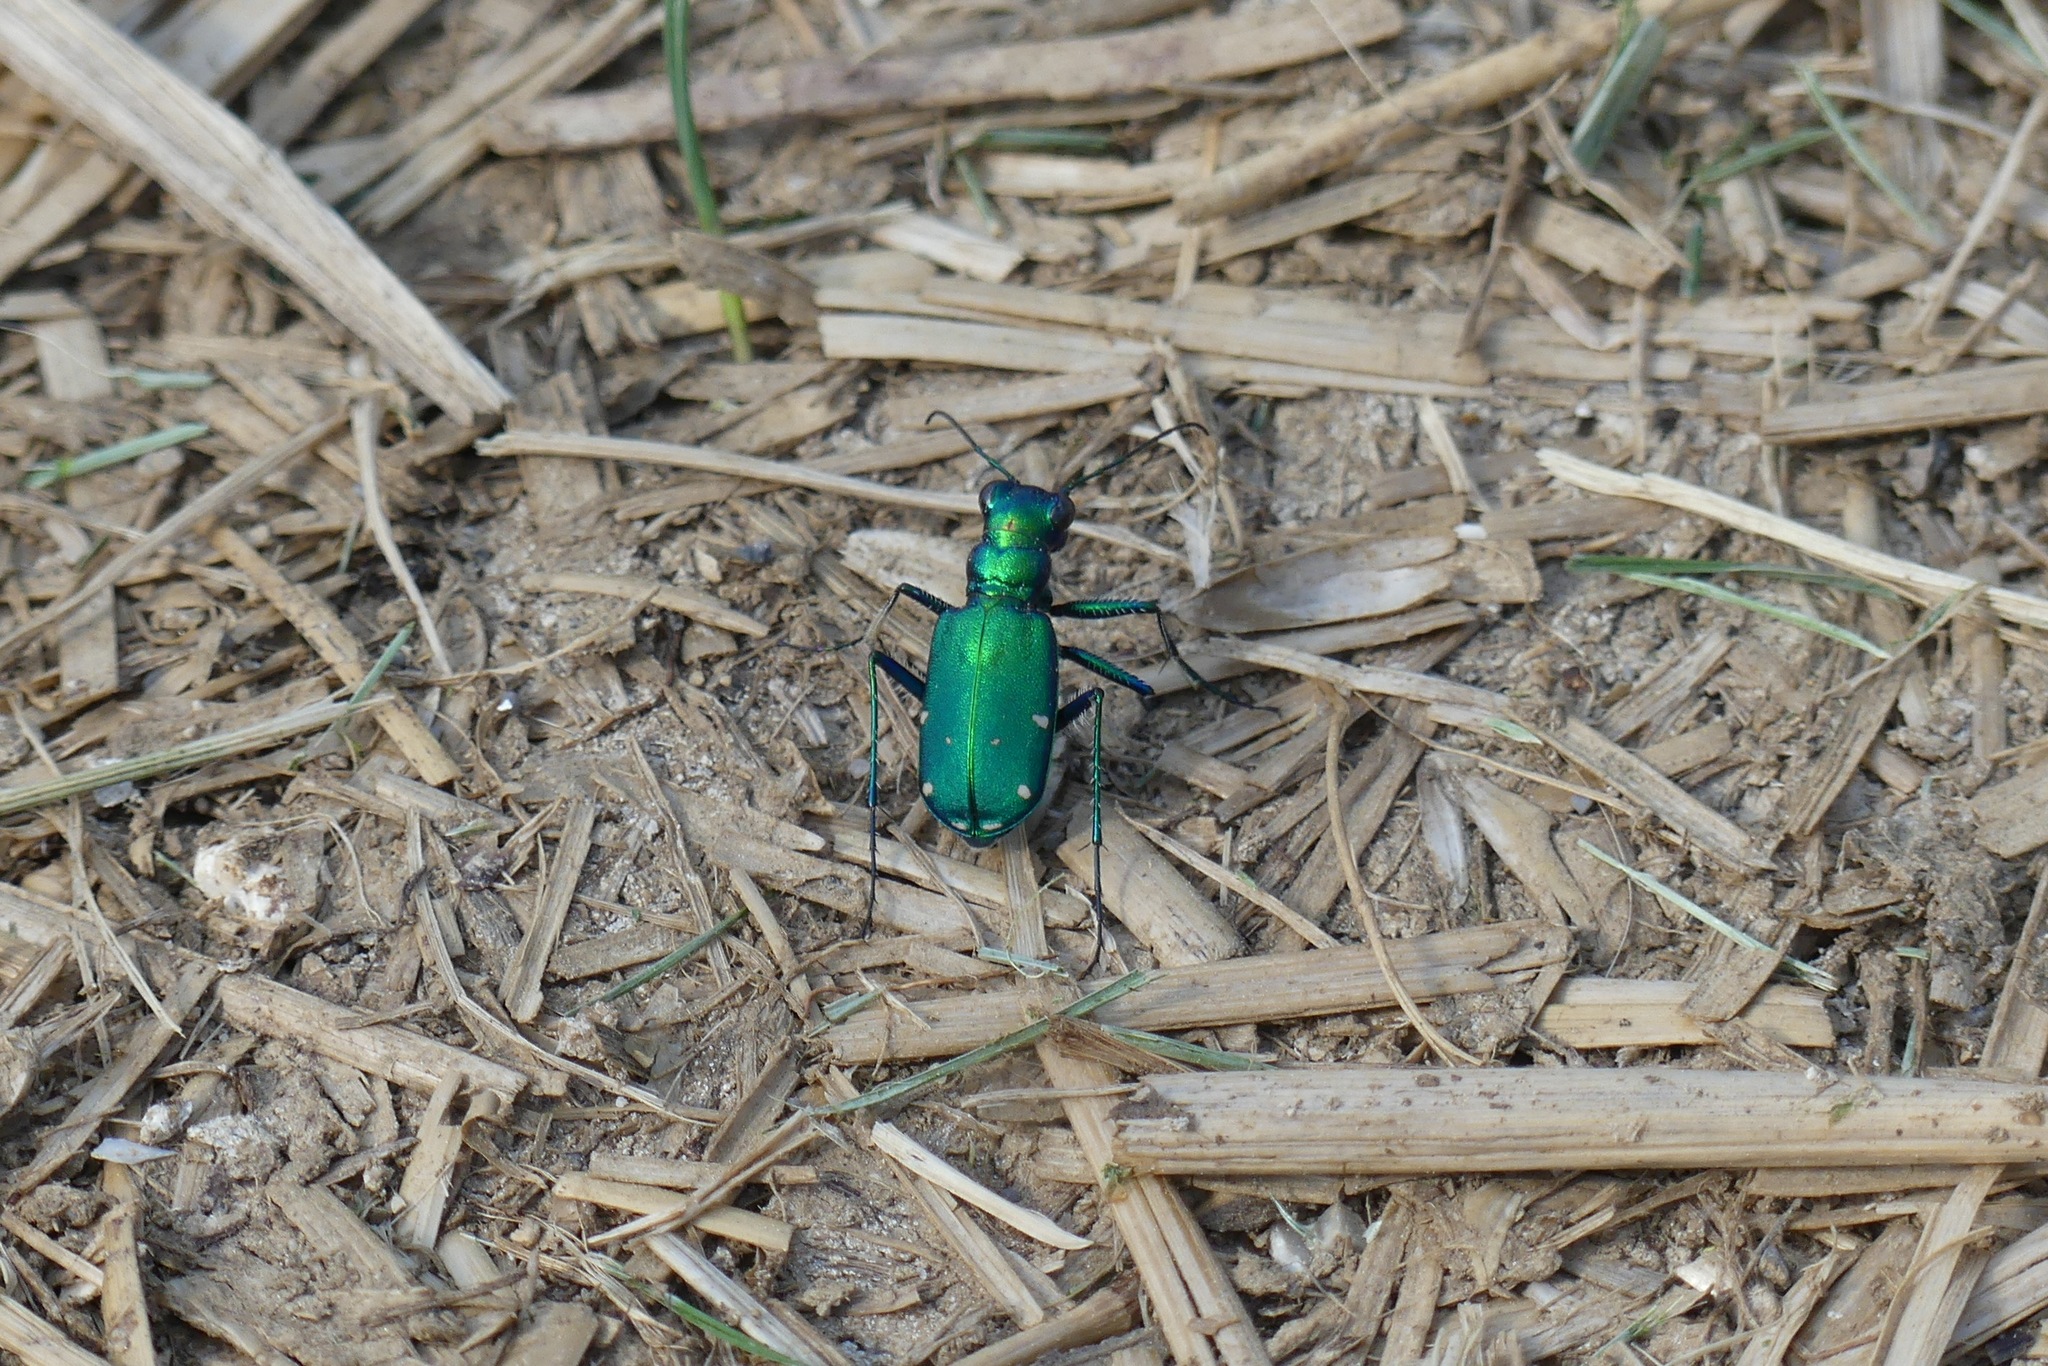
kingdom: Animalia
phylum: Arthropoda
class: Insecta
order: Coleoptera
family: Carabidae
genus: Cicindela
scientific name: Cicindela sexguttata
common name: Six-spotted tiger beetle
